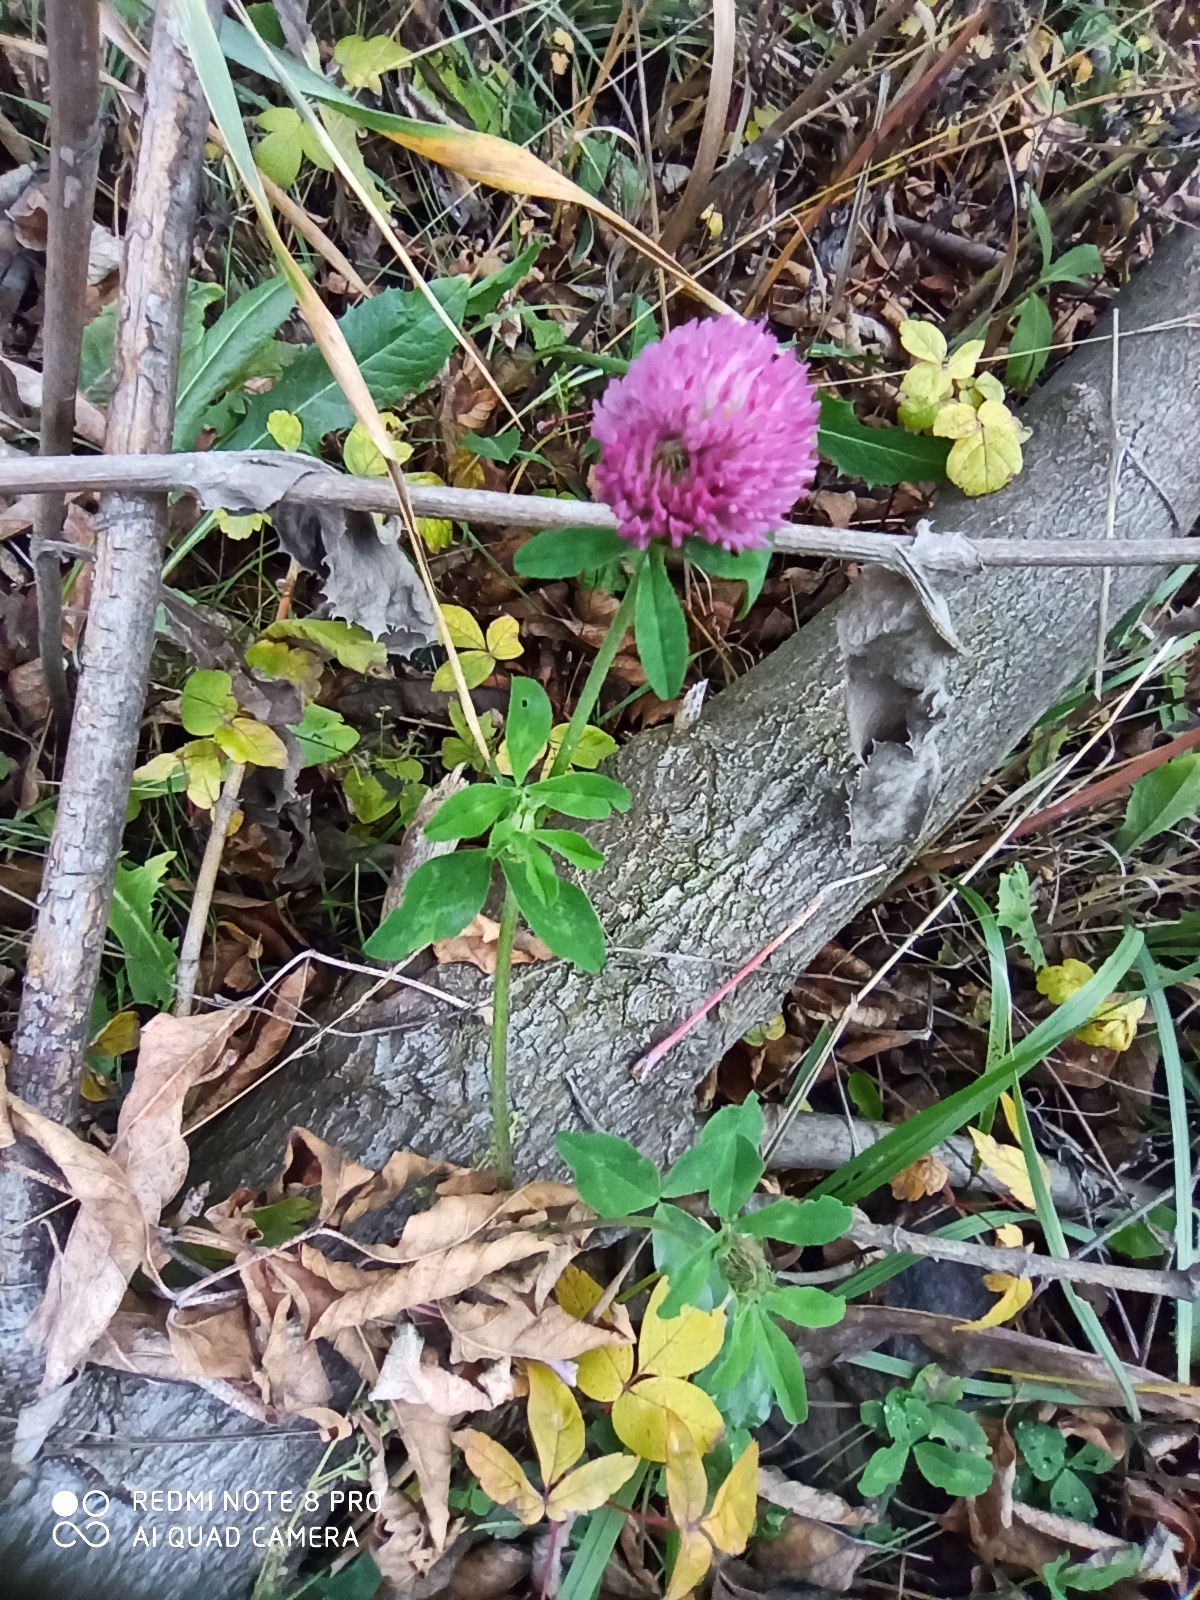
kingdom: Plantae
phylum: Tracheophyta
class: Magnoliopsida
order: Fabales
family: Fabaceae
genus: Trifolium
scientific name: Trifolium pratense
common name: Red clover
